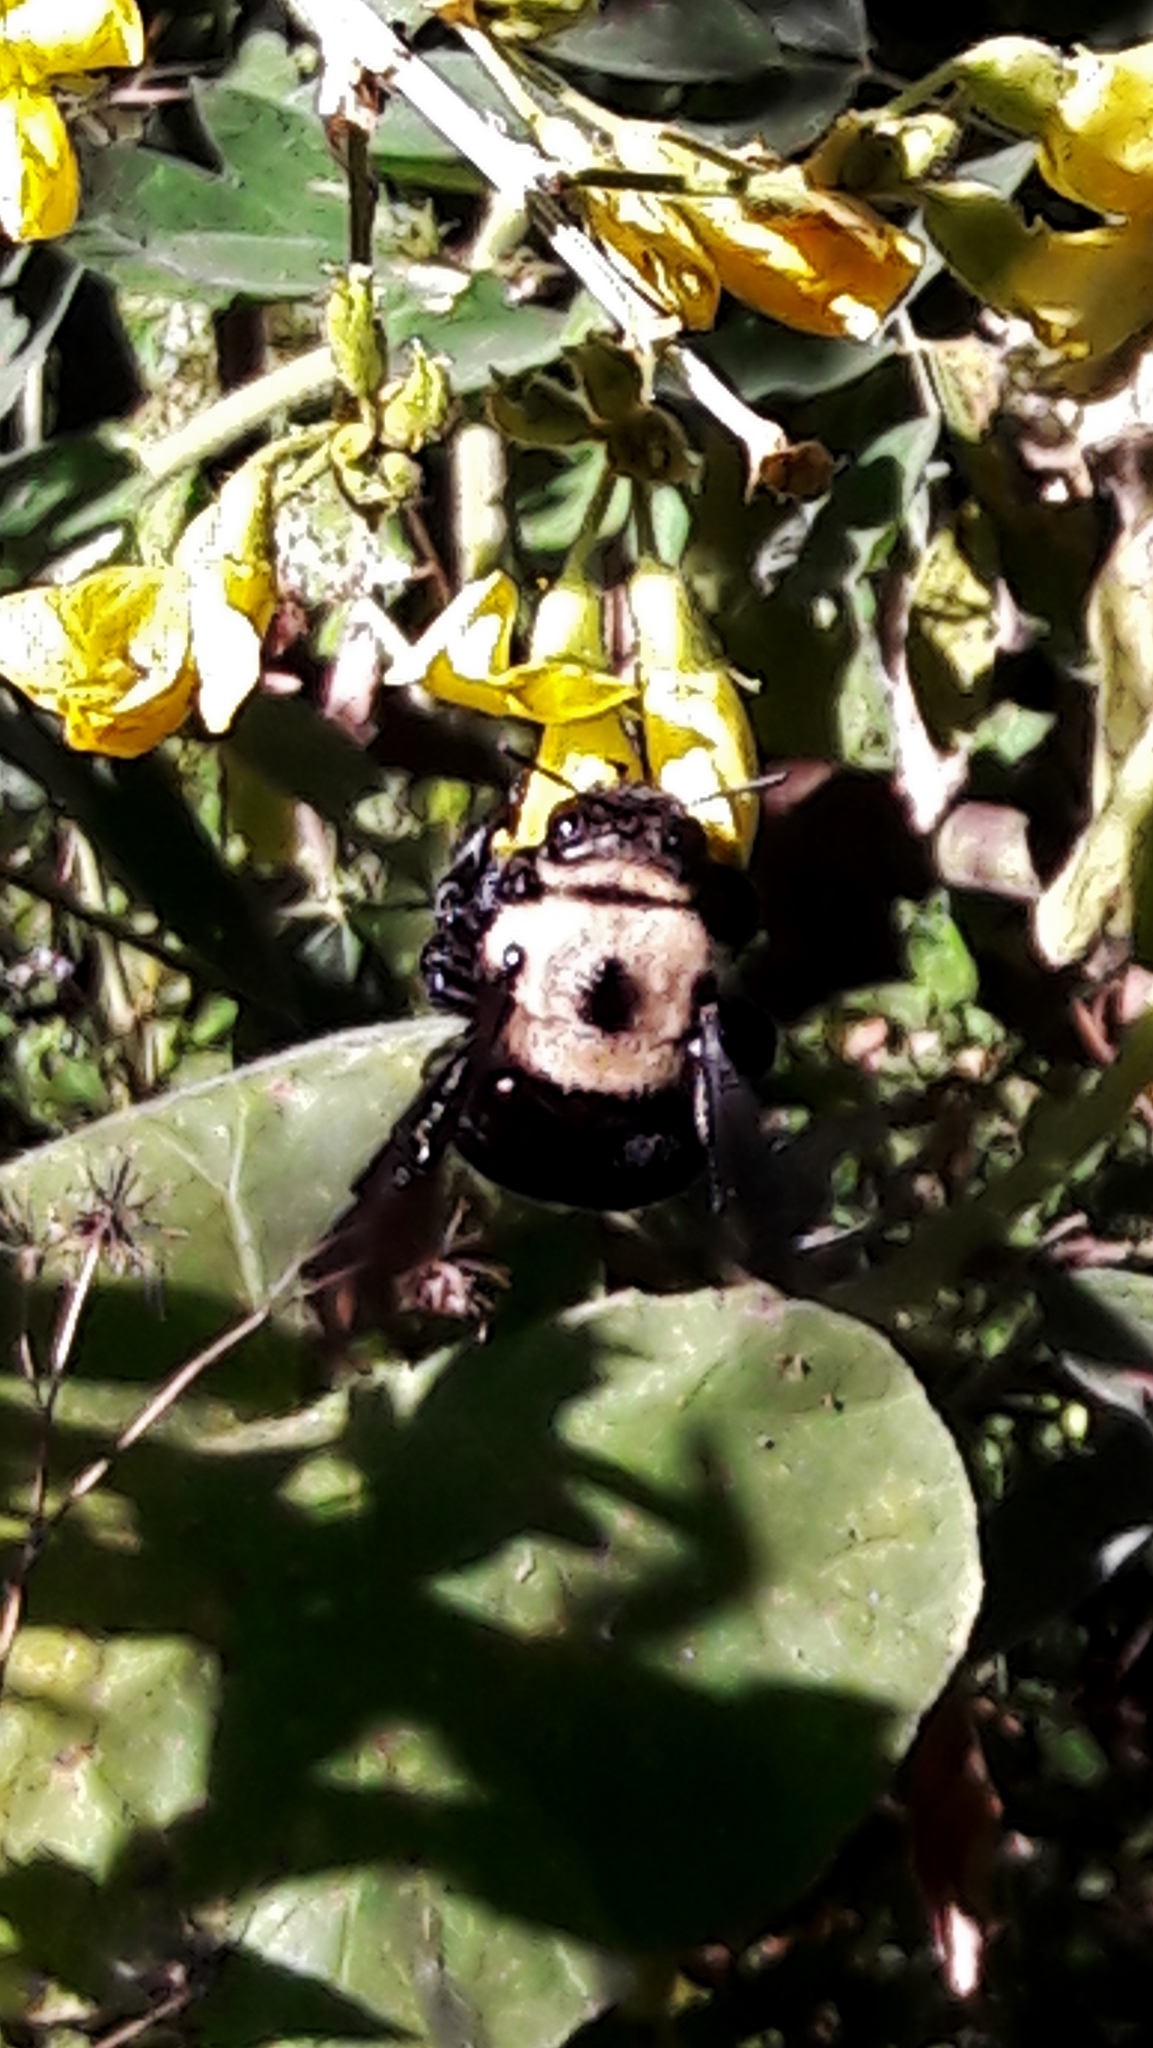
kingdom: Animalia
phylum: Arthropoda
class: Insecta
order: Hymenoptera
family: Apidae
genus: Xylocopa
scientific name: Xylocopa grisescens
